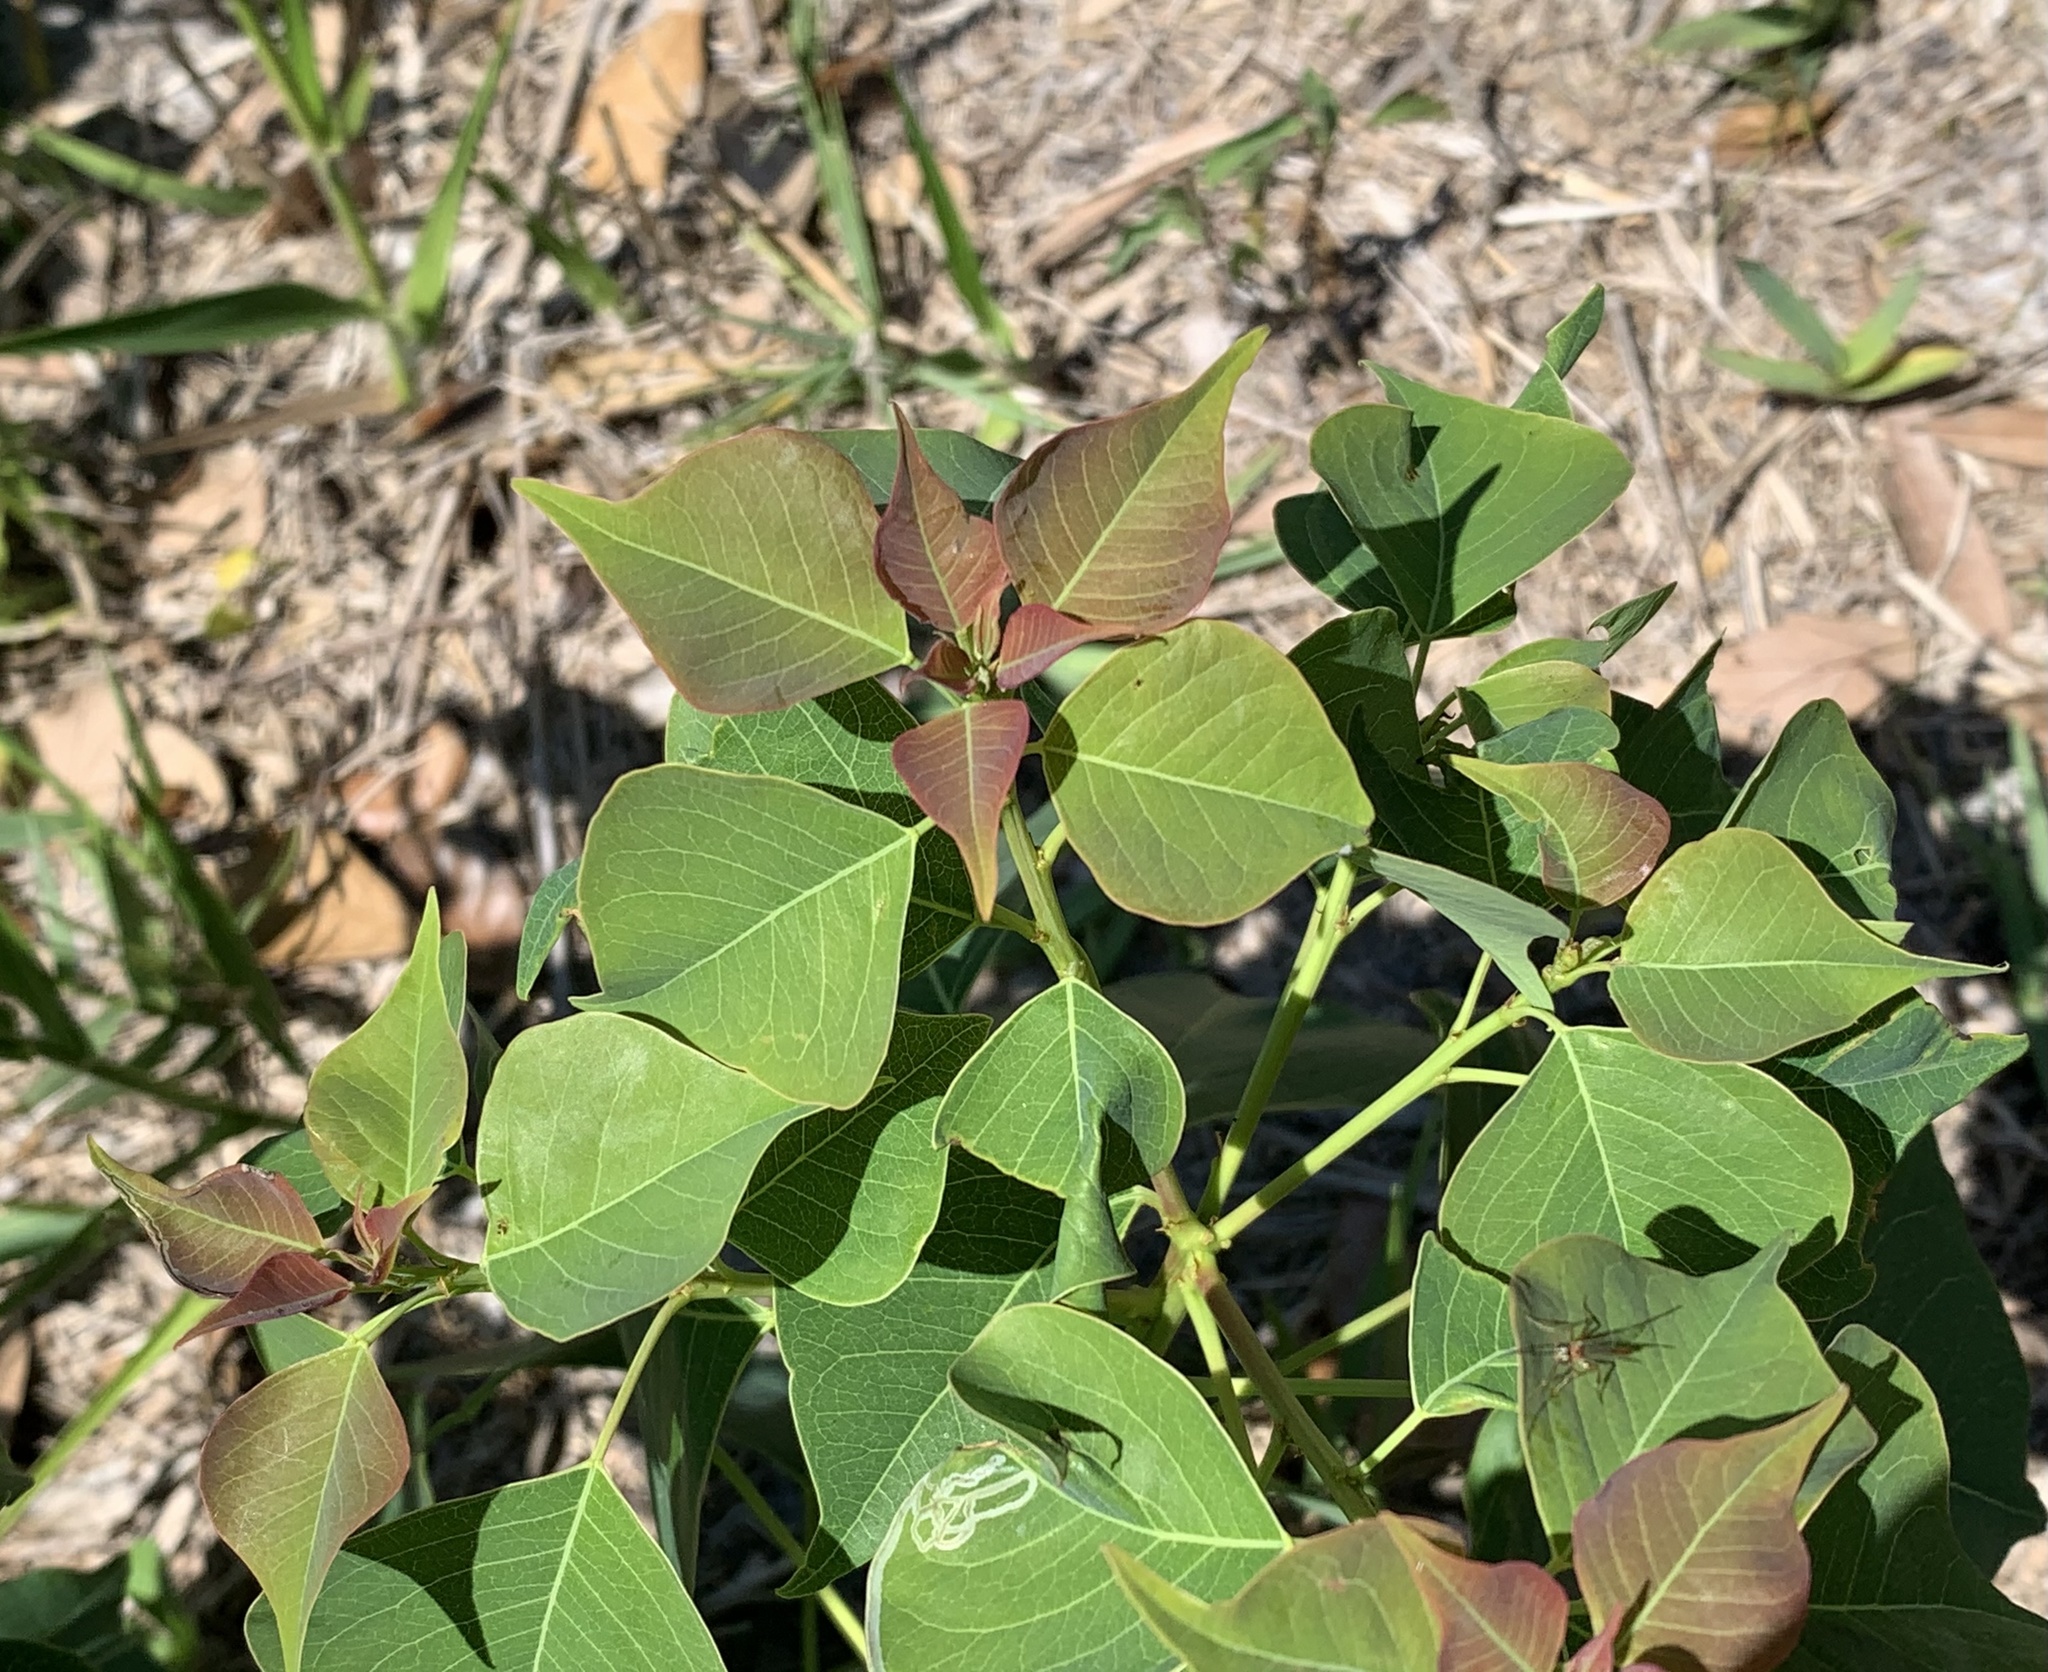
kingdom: Plantae
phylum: Tracheophyta
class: Magnoliopsida
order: Malpighiales
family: Euphorbiaceae
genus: Triadica
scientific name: Triadica sebifera
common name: Chinese tallow
